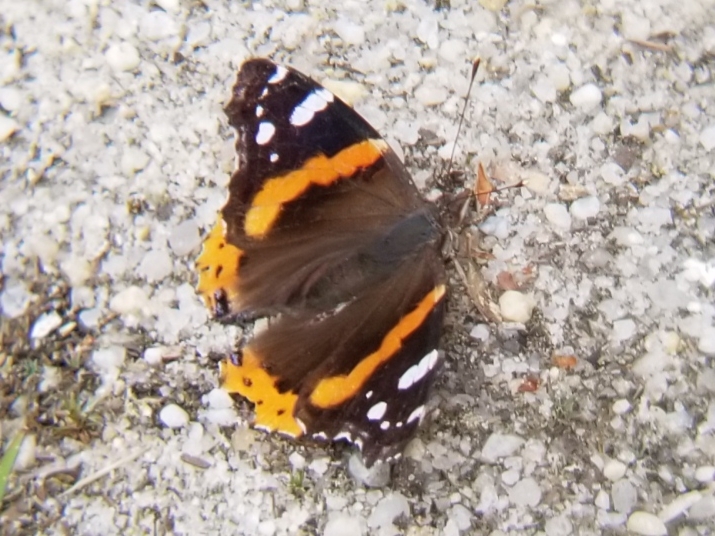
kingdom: Animalia
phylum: Arthropoda
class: Insecta
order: Lepidoptera
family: Nymphalidae
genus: Vanessa
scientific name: Vanessa atalanta
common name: Red admiral
